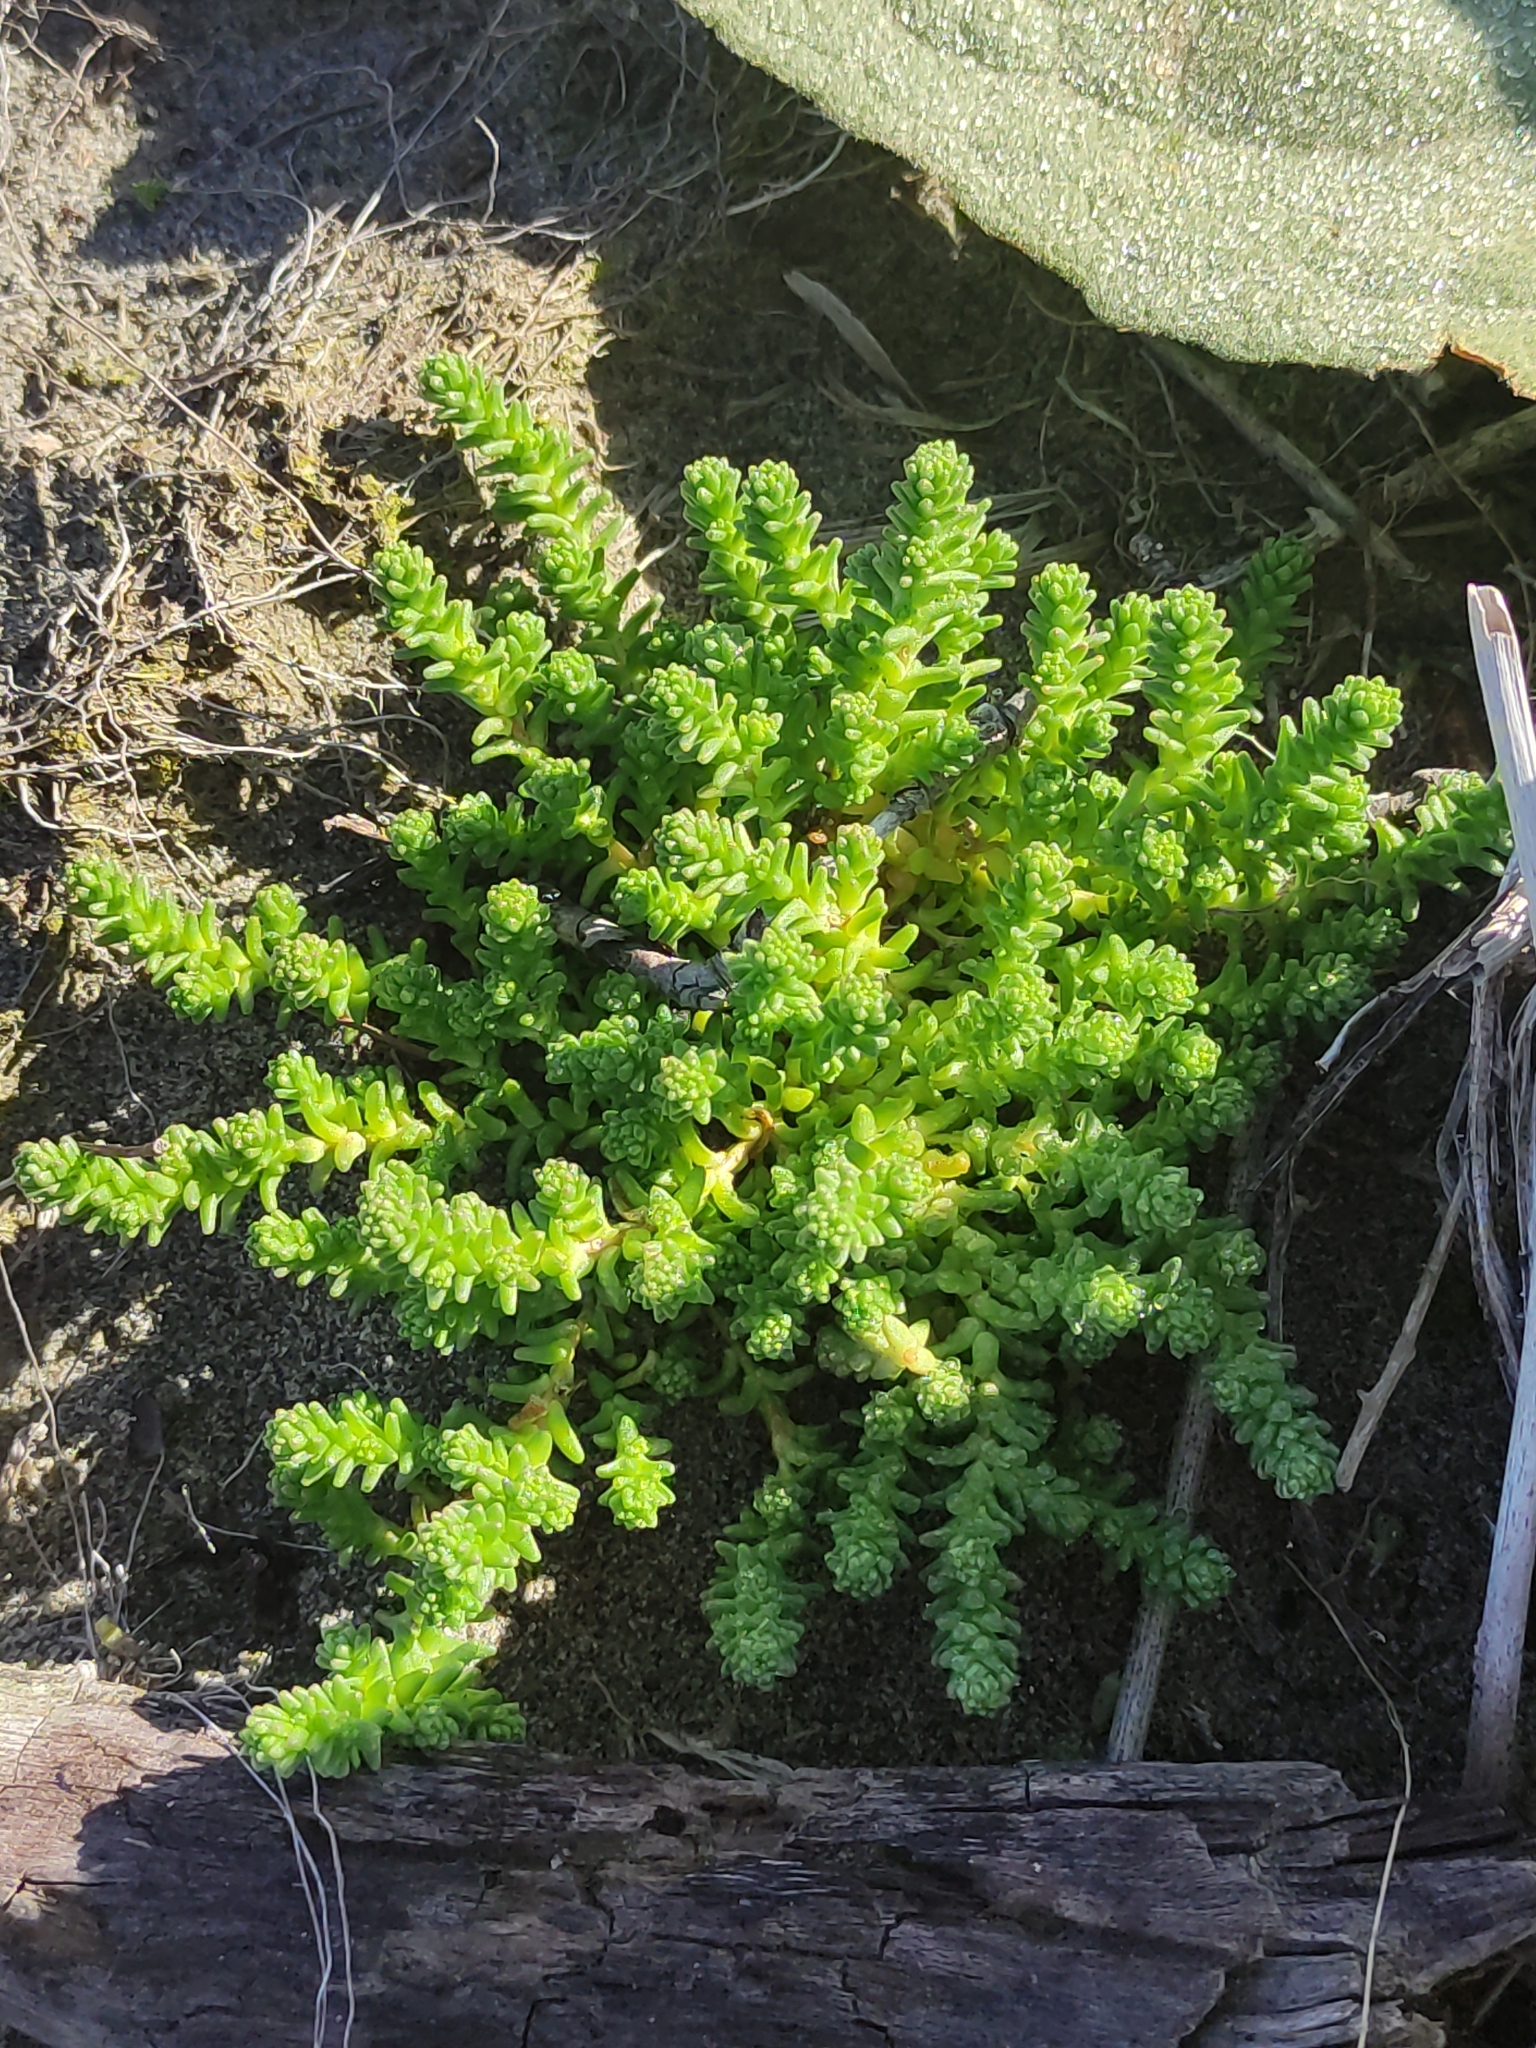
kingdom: Plantae
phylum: Tracheophyta
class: Magnoliopsida
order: Saxifragales
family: Crassulaceae
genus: Sedum
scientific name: Sedum acre
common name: Biting stonecrop
